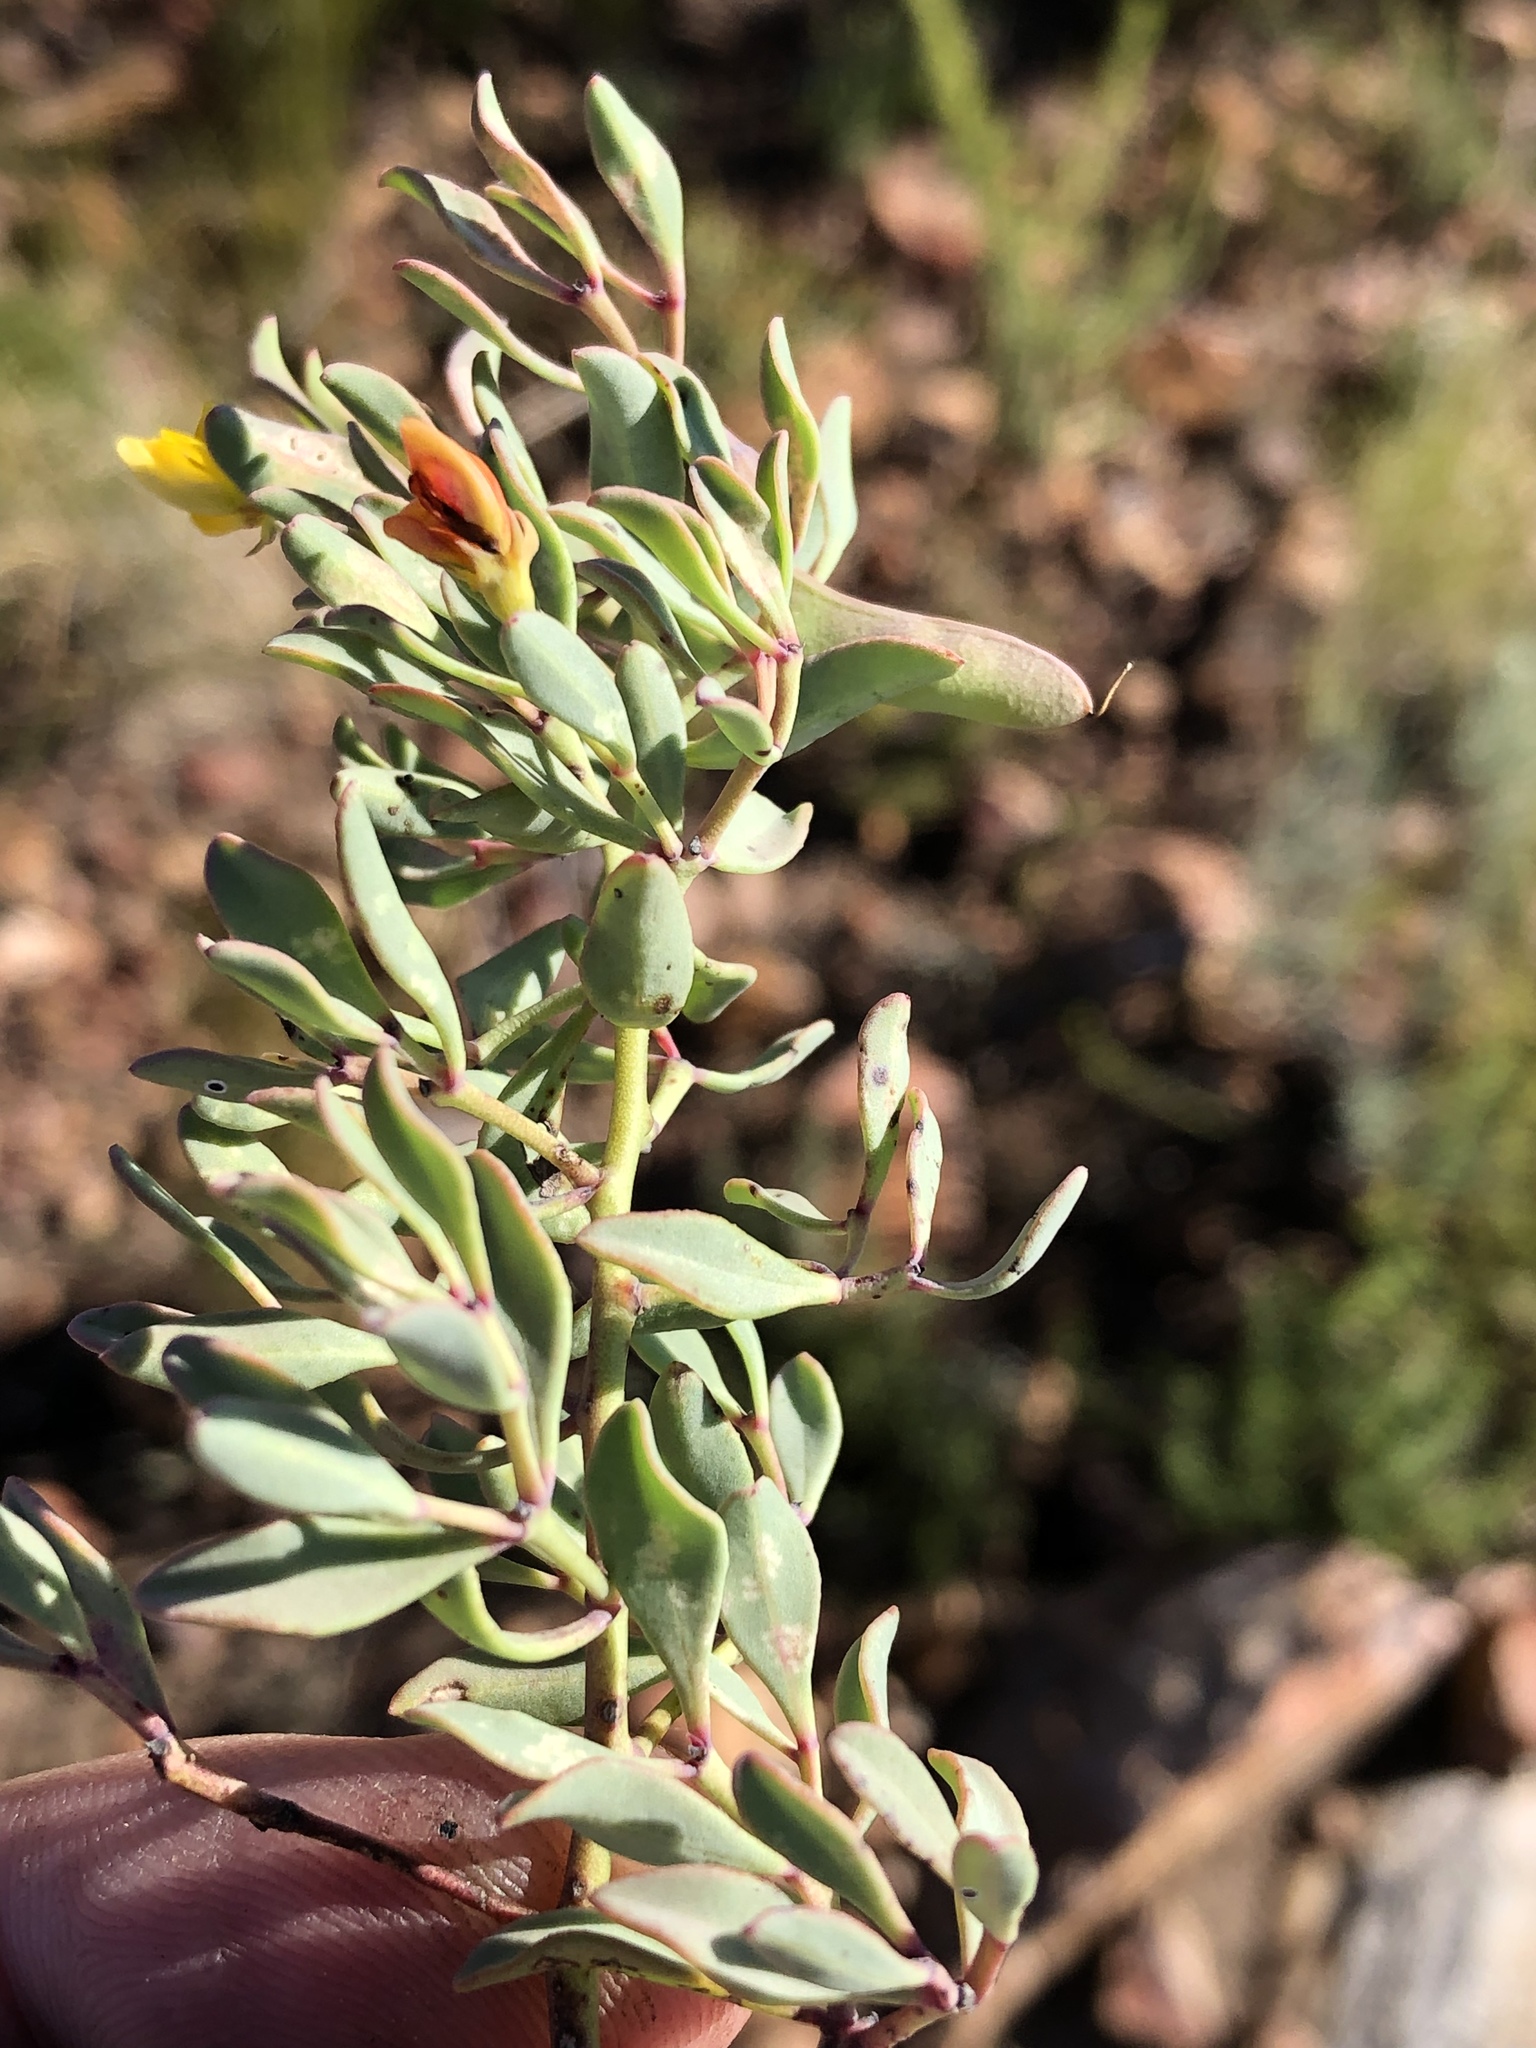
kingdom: Plantae
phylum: Tracheophyta
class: Magnoliopsida
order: Fabales
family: Fabaceae
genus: Rafnia
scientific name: Rafnia capensis
